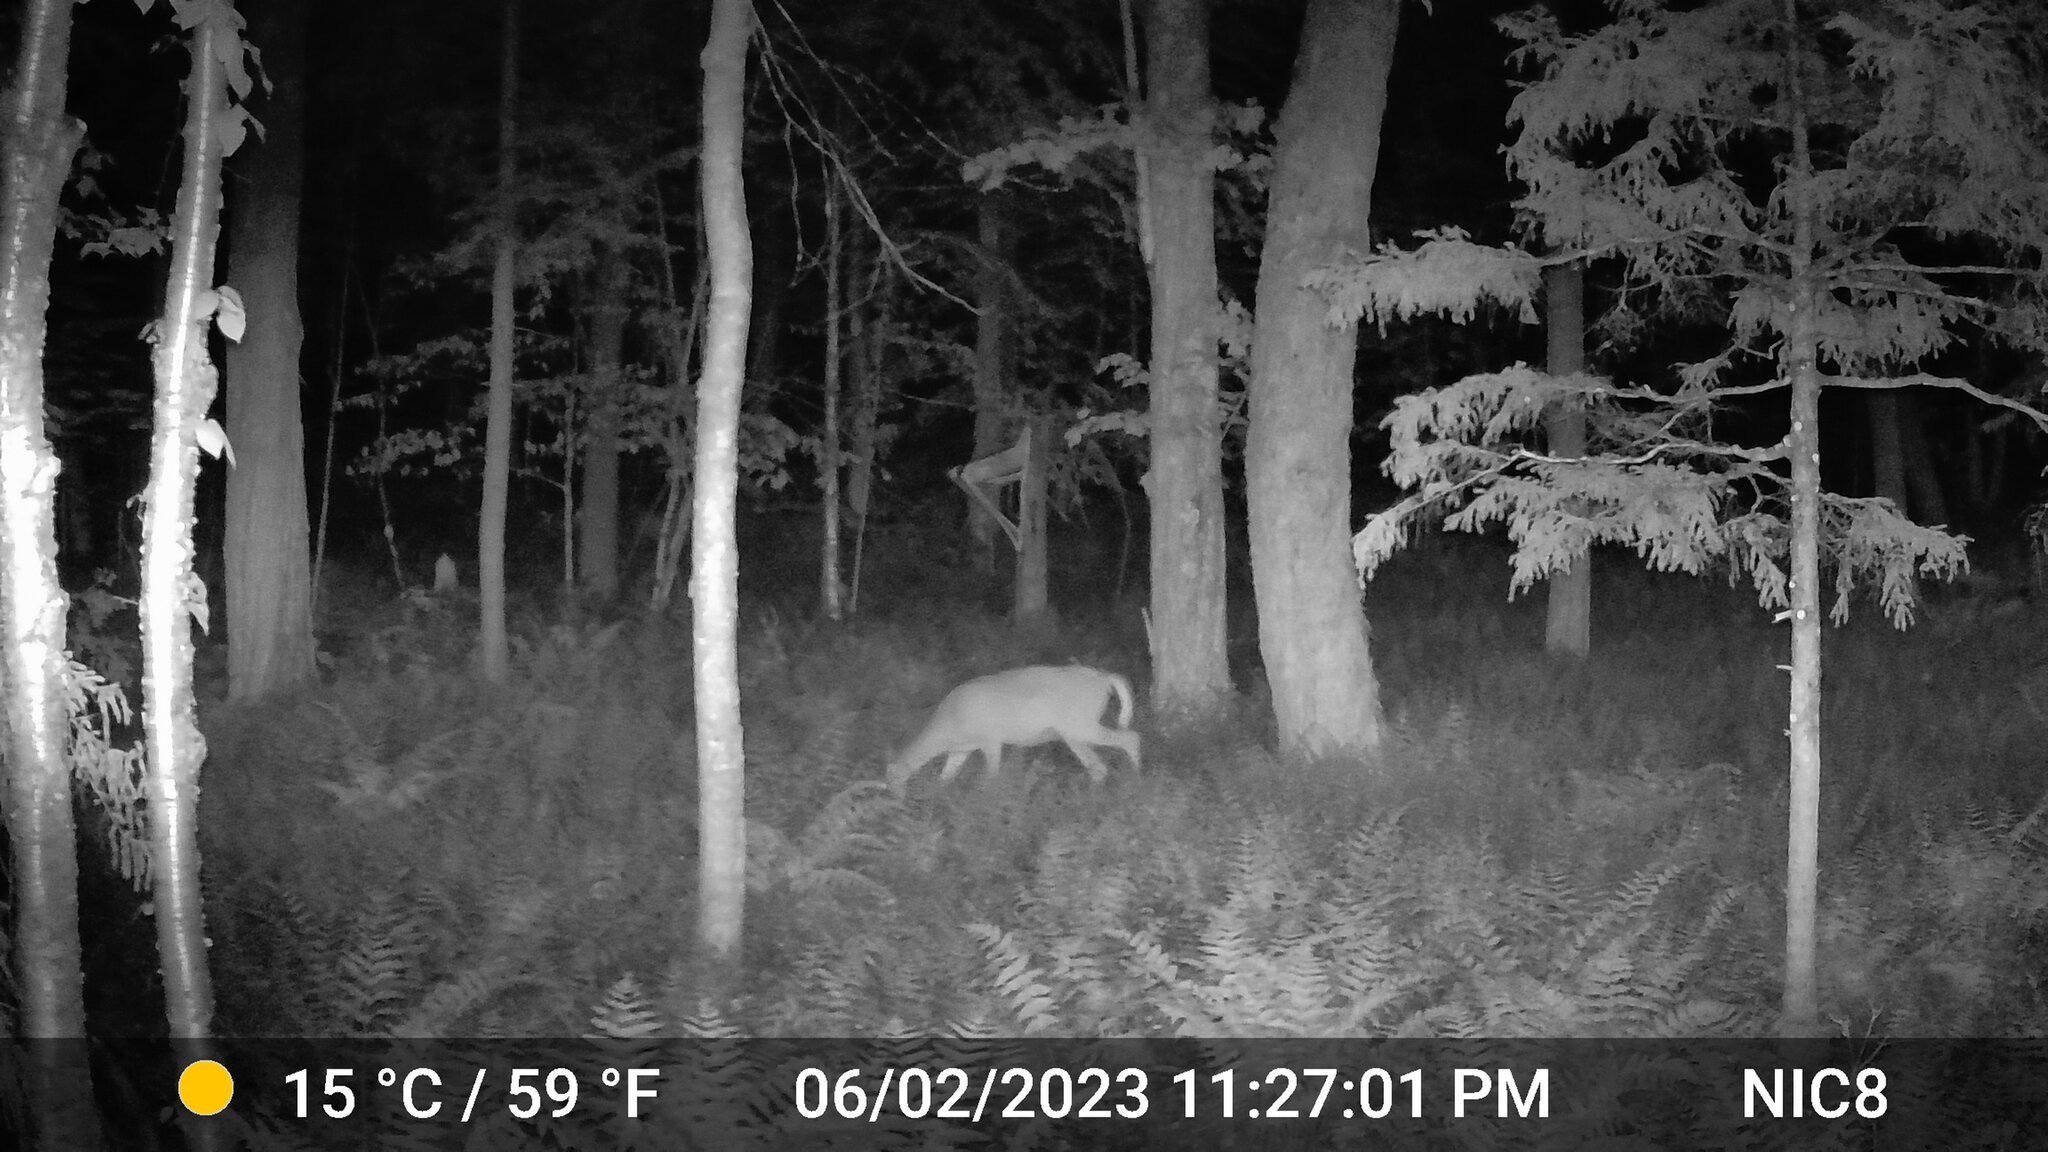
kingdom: Animalia
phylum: Chordata
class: Mammalia
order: Artiodactyla
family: Cervidae
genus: Odocoileus
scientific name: Odocoileus virginianus
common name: White-tailed deer
